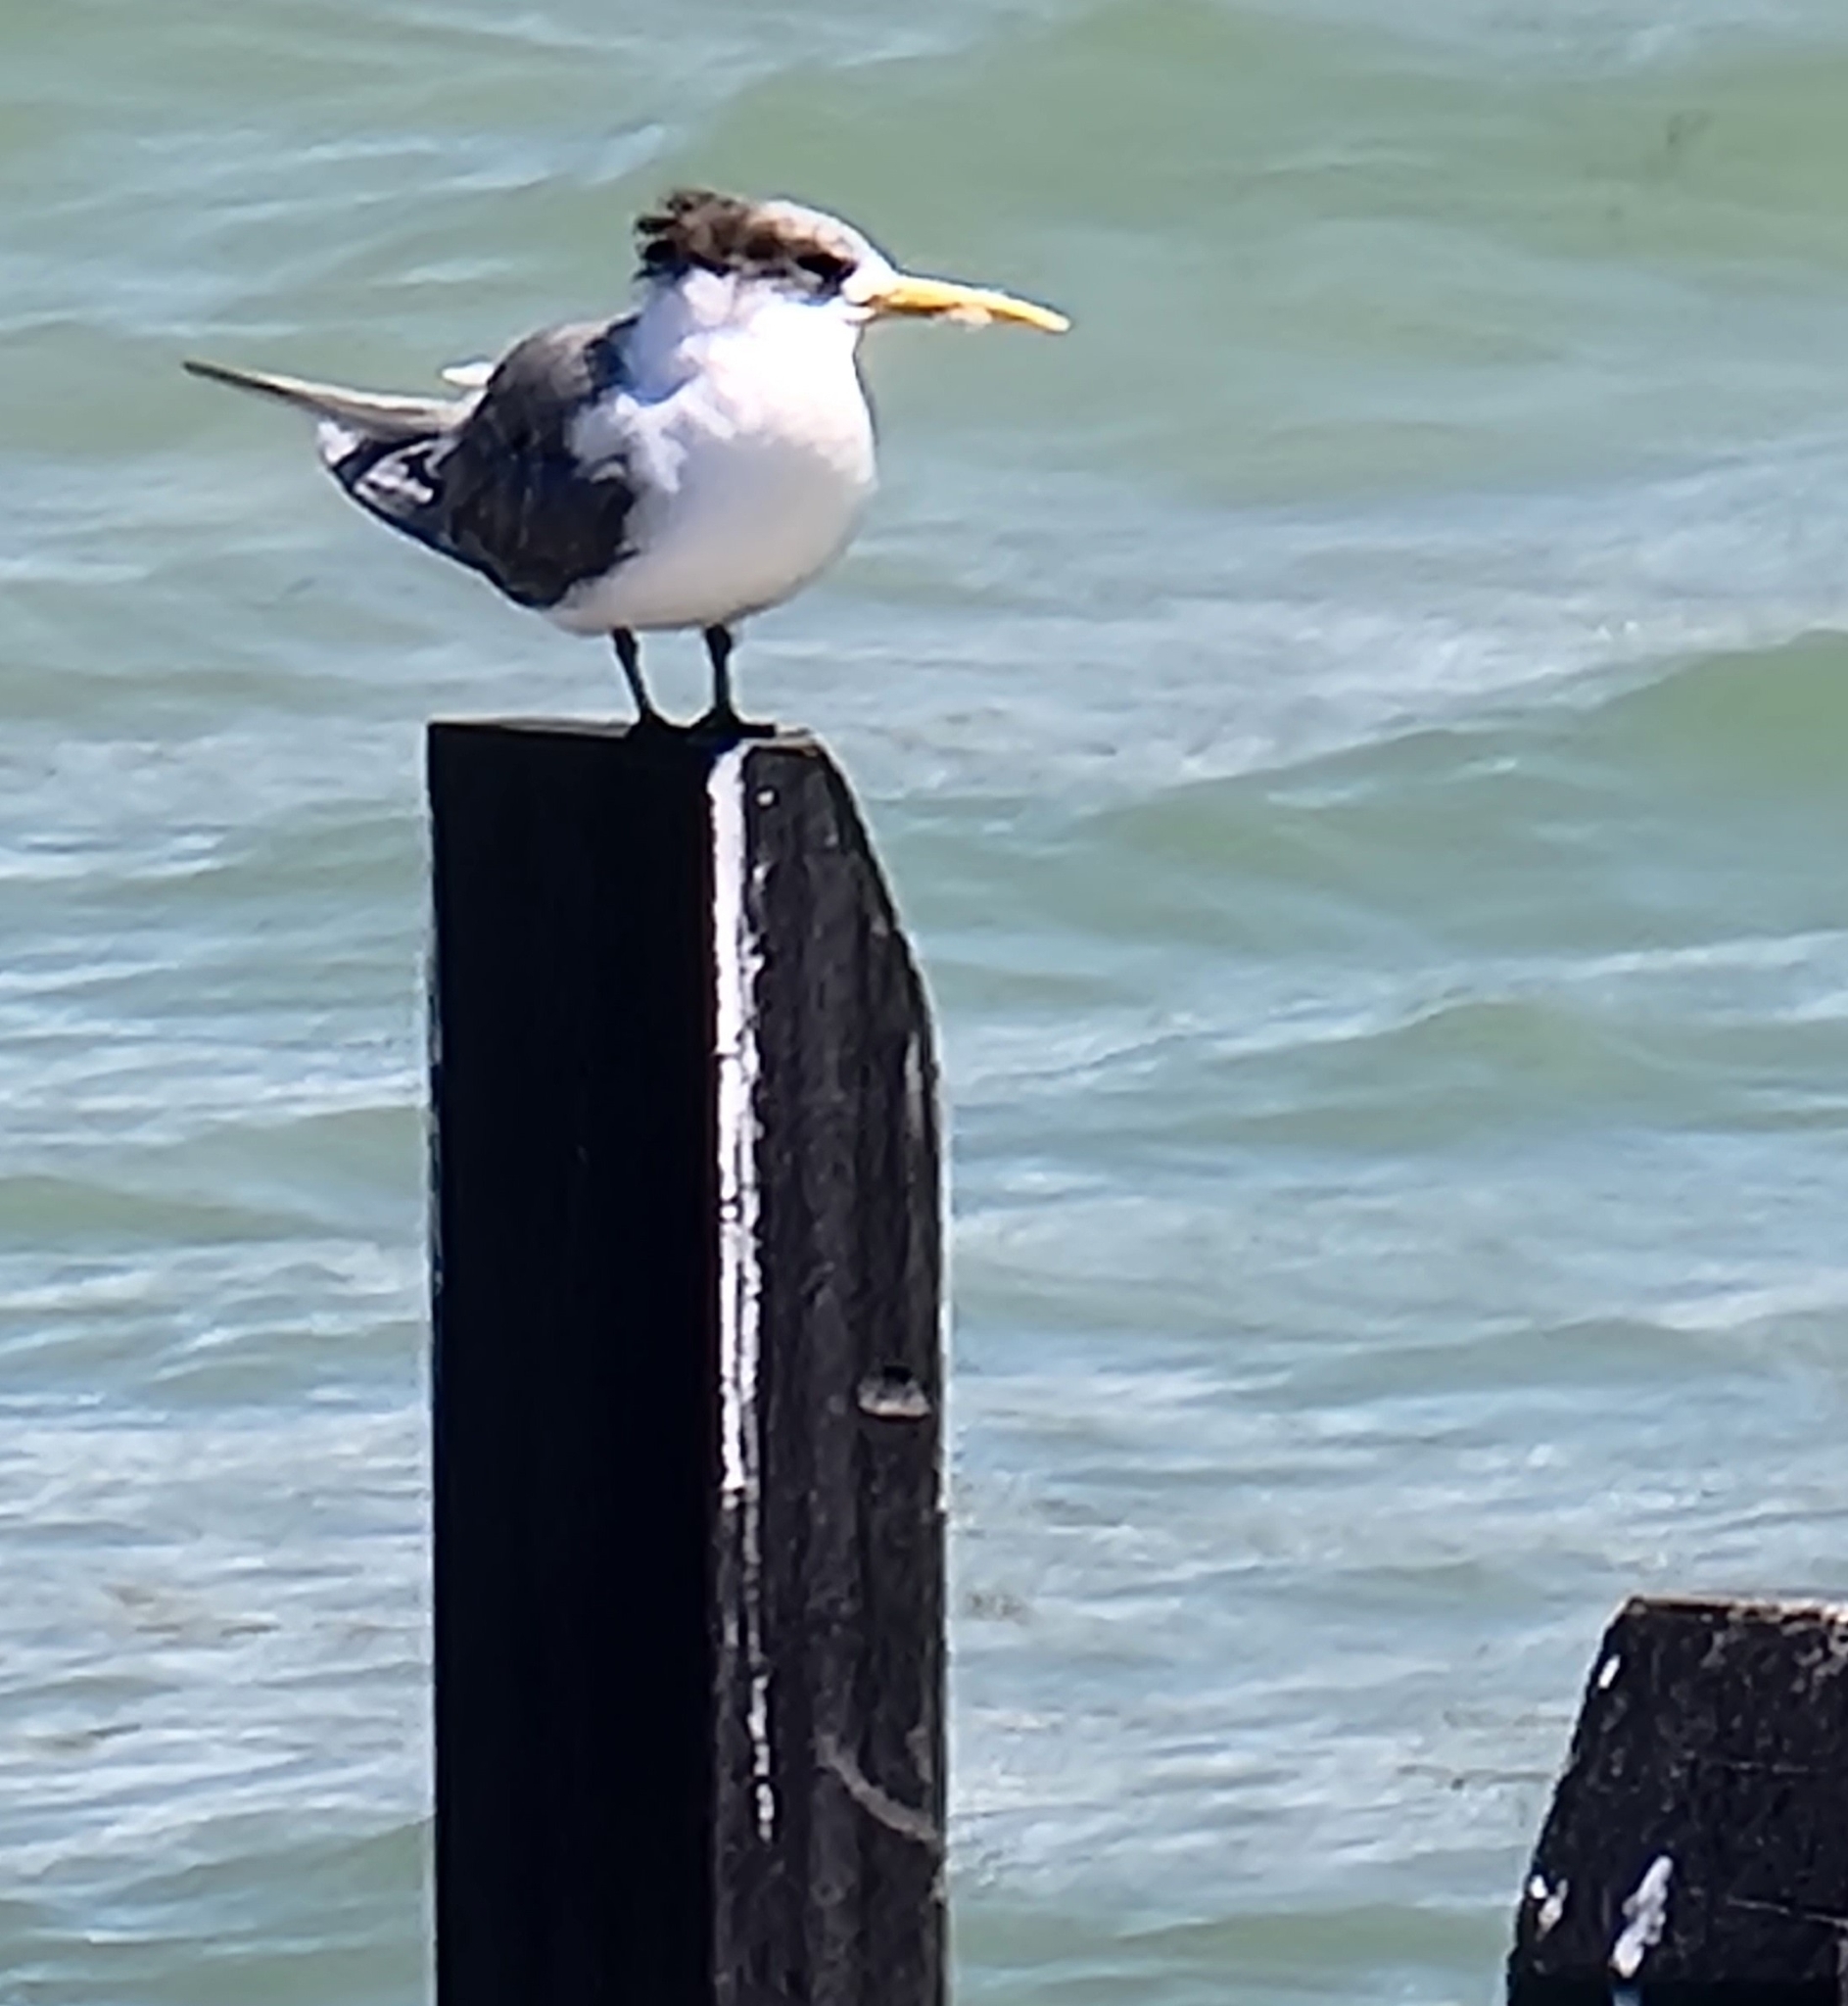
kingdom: Animalia
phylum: Chordata
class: Aves
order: Charadriiformes
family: Laridae
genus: Thalasseus
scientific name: Thalasseus bergii
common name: Greater crested tern
